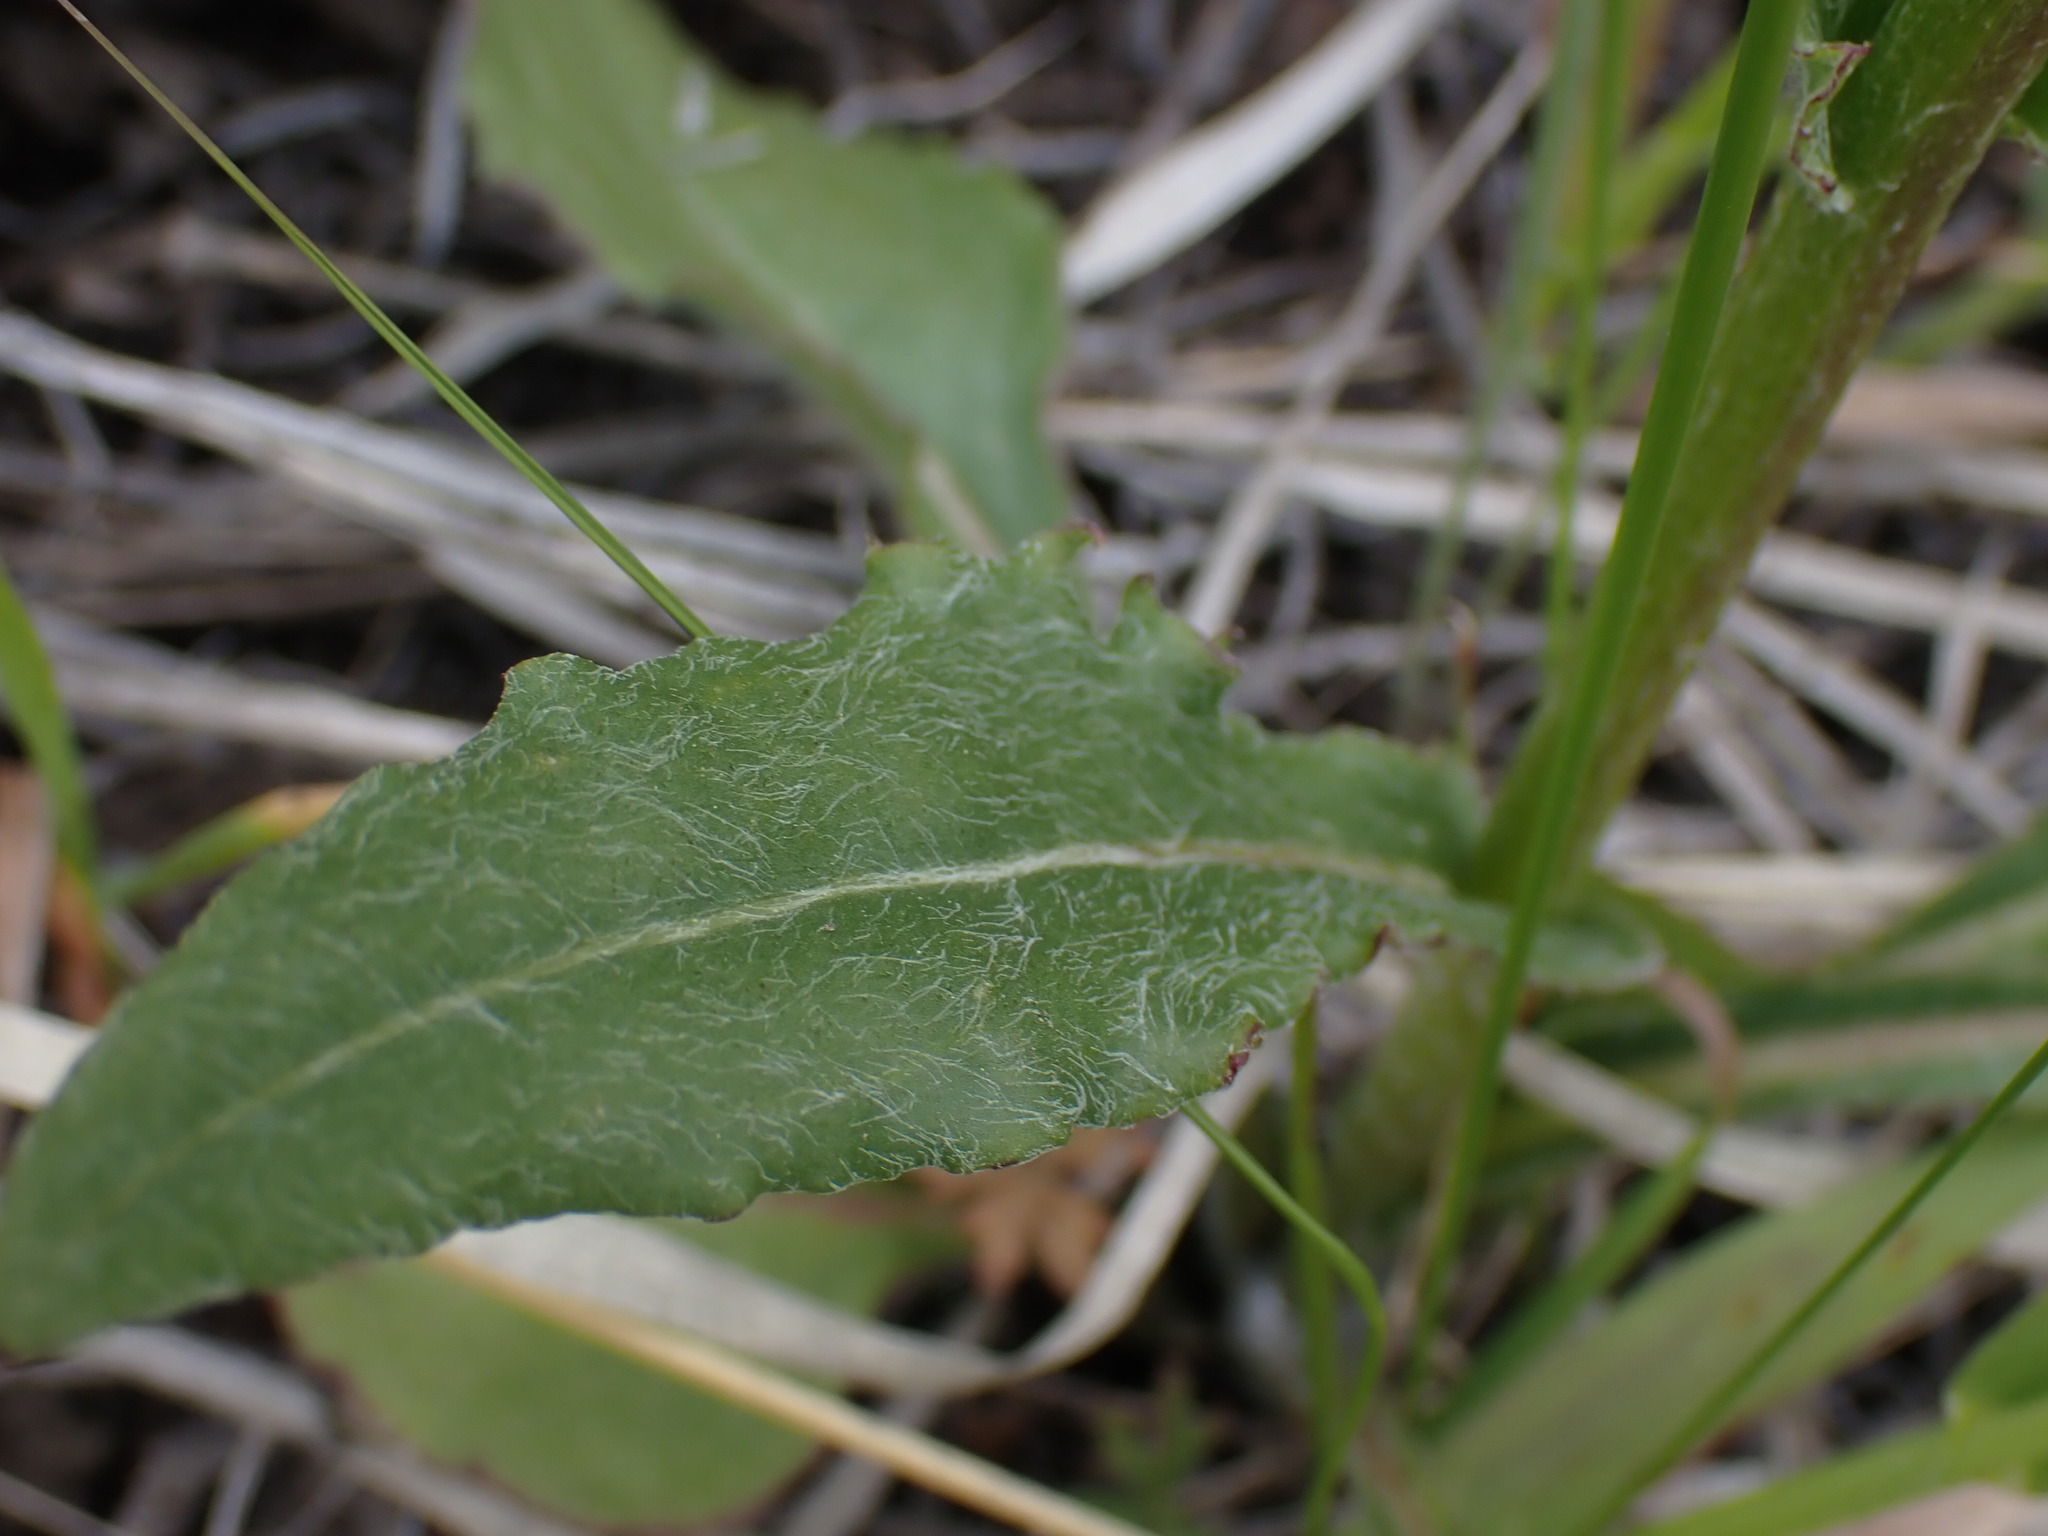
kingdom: Plantae
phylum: Tracheophyta
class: Magnoliopsida
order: Asterales
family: Asteraceae
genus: Senecio
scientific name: Senecio integerrimus
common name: Gaugeplant
